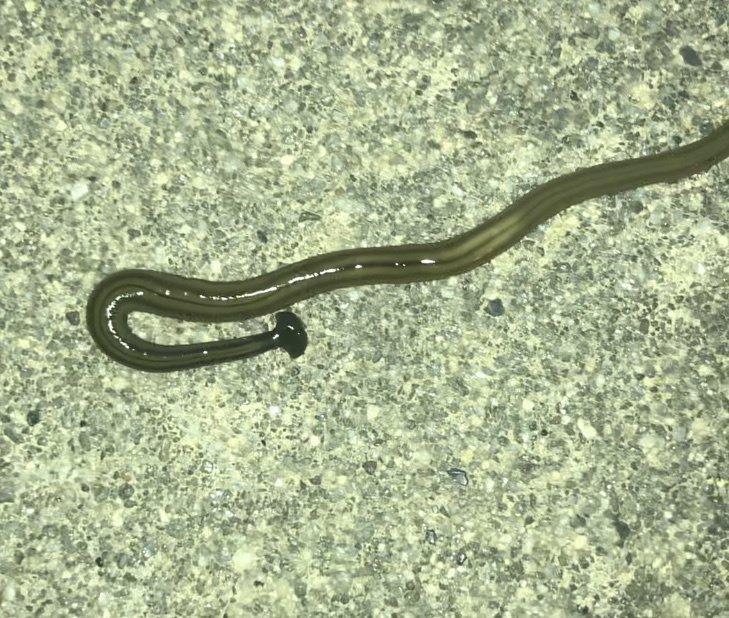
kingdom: Animalia
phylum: Platyhelminthes
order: Tricladida
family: Geoplanidae
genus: Bipalium
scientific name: Bipalium kewense
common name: Hammerhead flatworm
